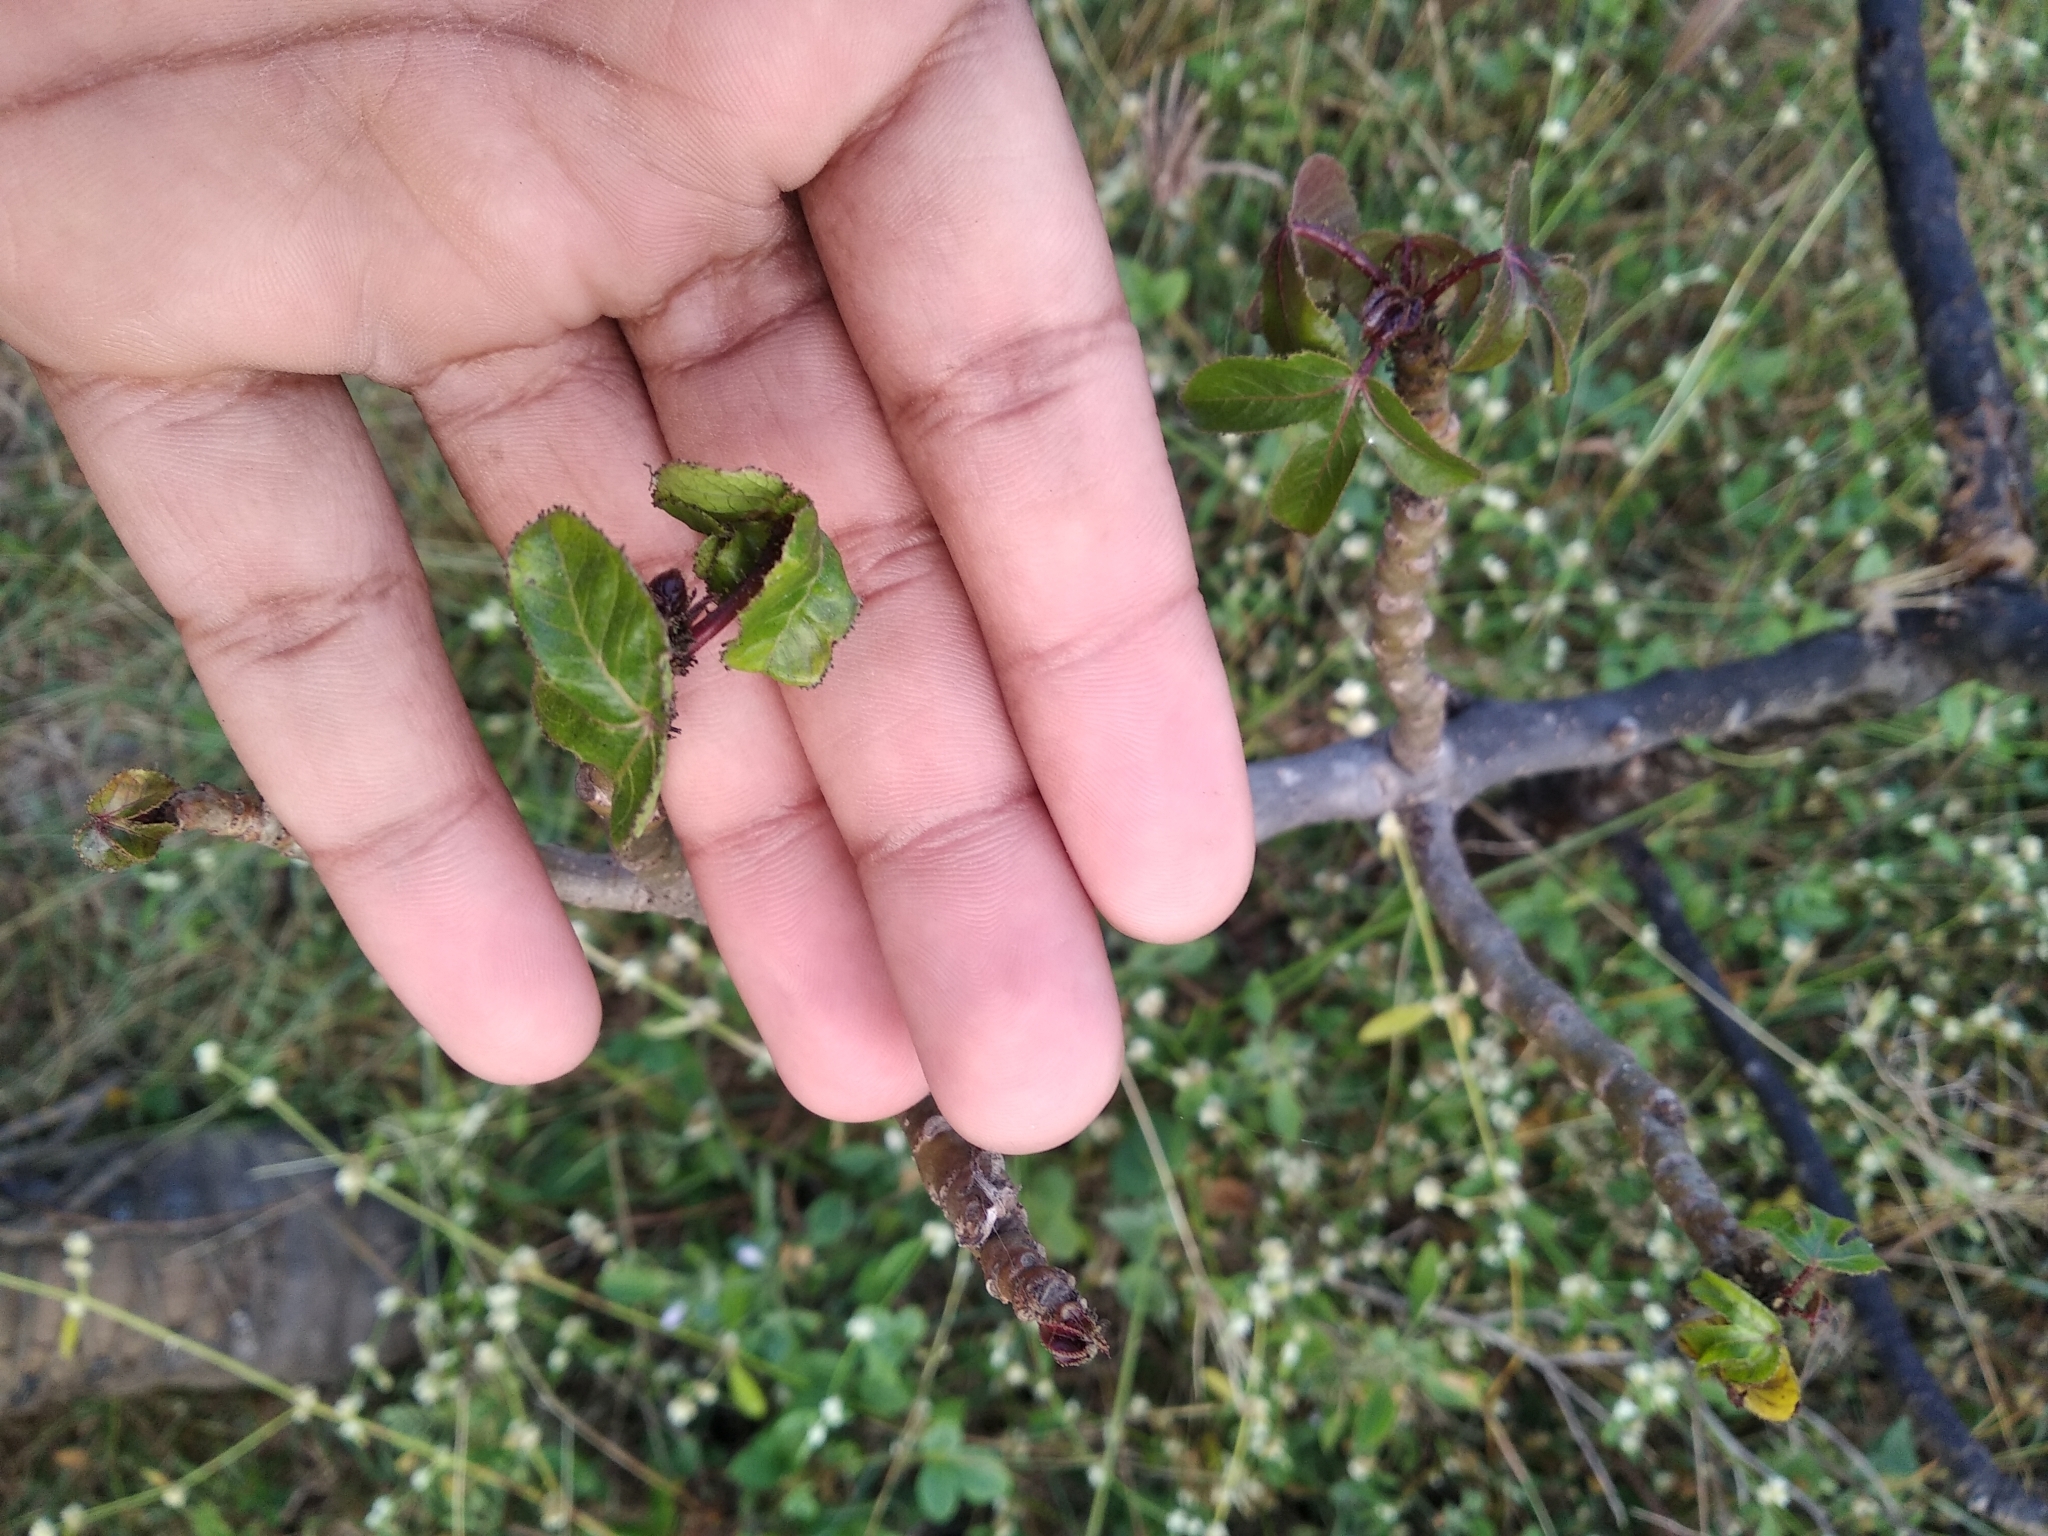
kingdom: Plantae
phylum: Tracheophyta
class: Magnoliopsida
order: Malpighiales
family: Euphorbiaceae
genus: Jatropha
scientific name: Jatropha gossypiifolia
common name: Bellyache bush
